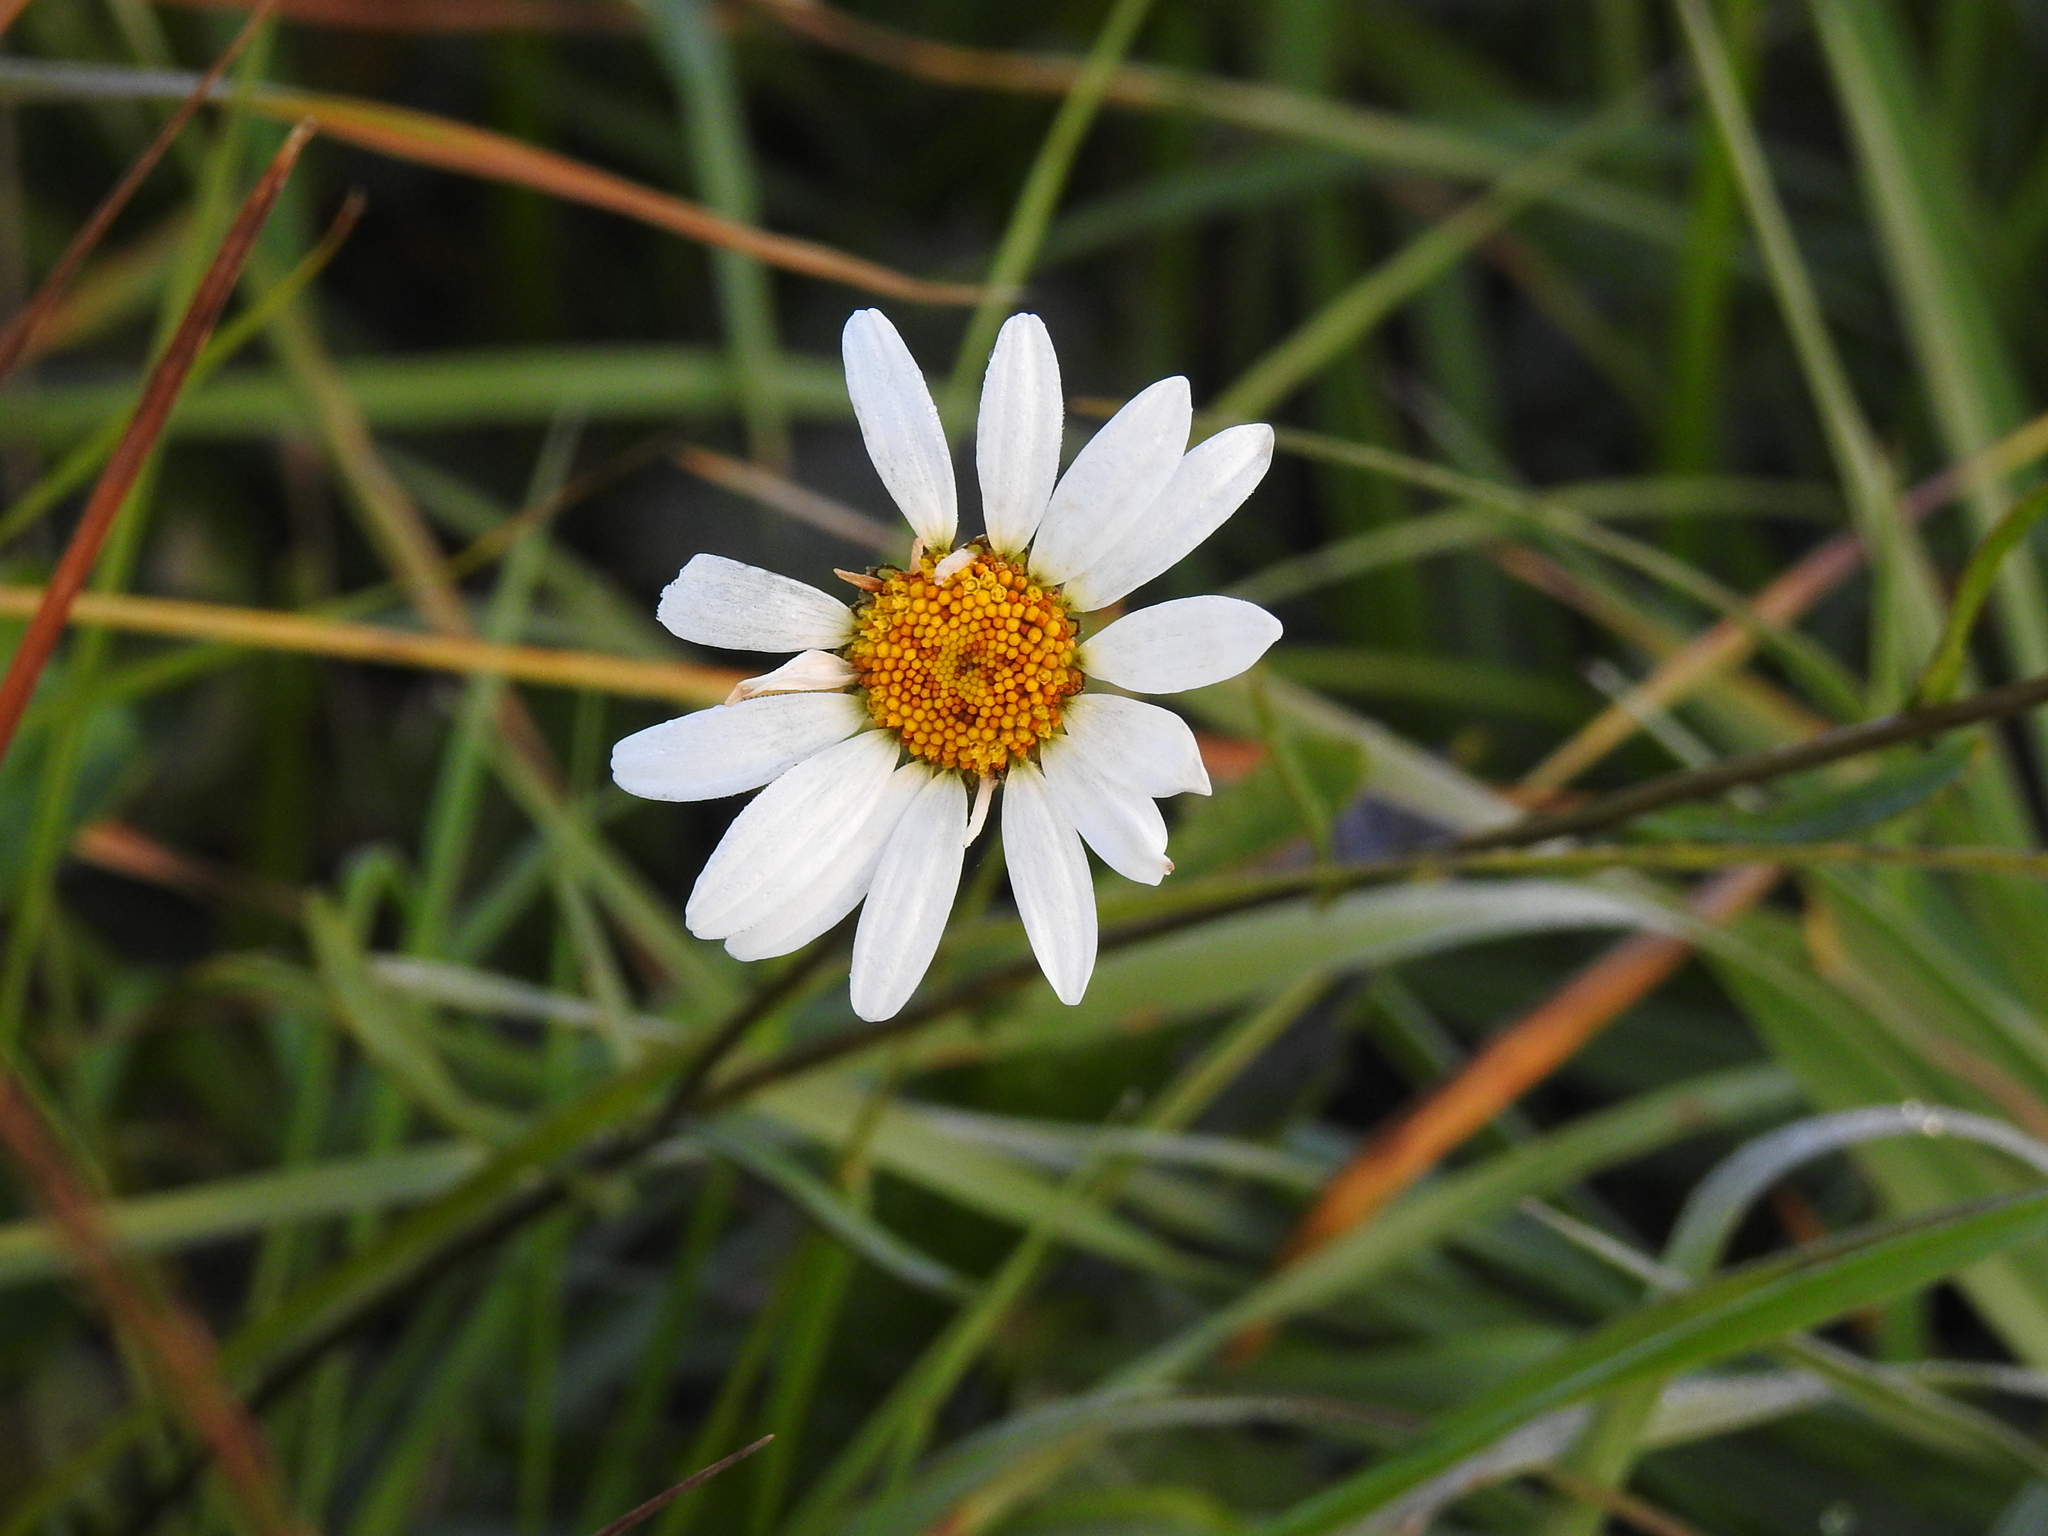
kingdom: Plantae
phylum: Tracheophyta
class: Magnoliopsida
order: Asterales
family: Asteraceae
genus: Leucanthemum
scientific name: Leucanthemum vulgare
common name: Oxeye daisy
